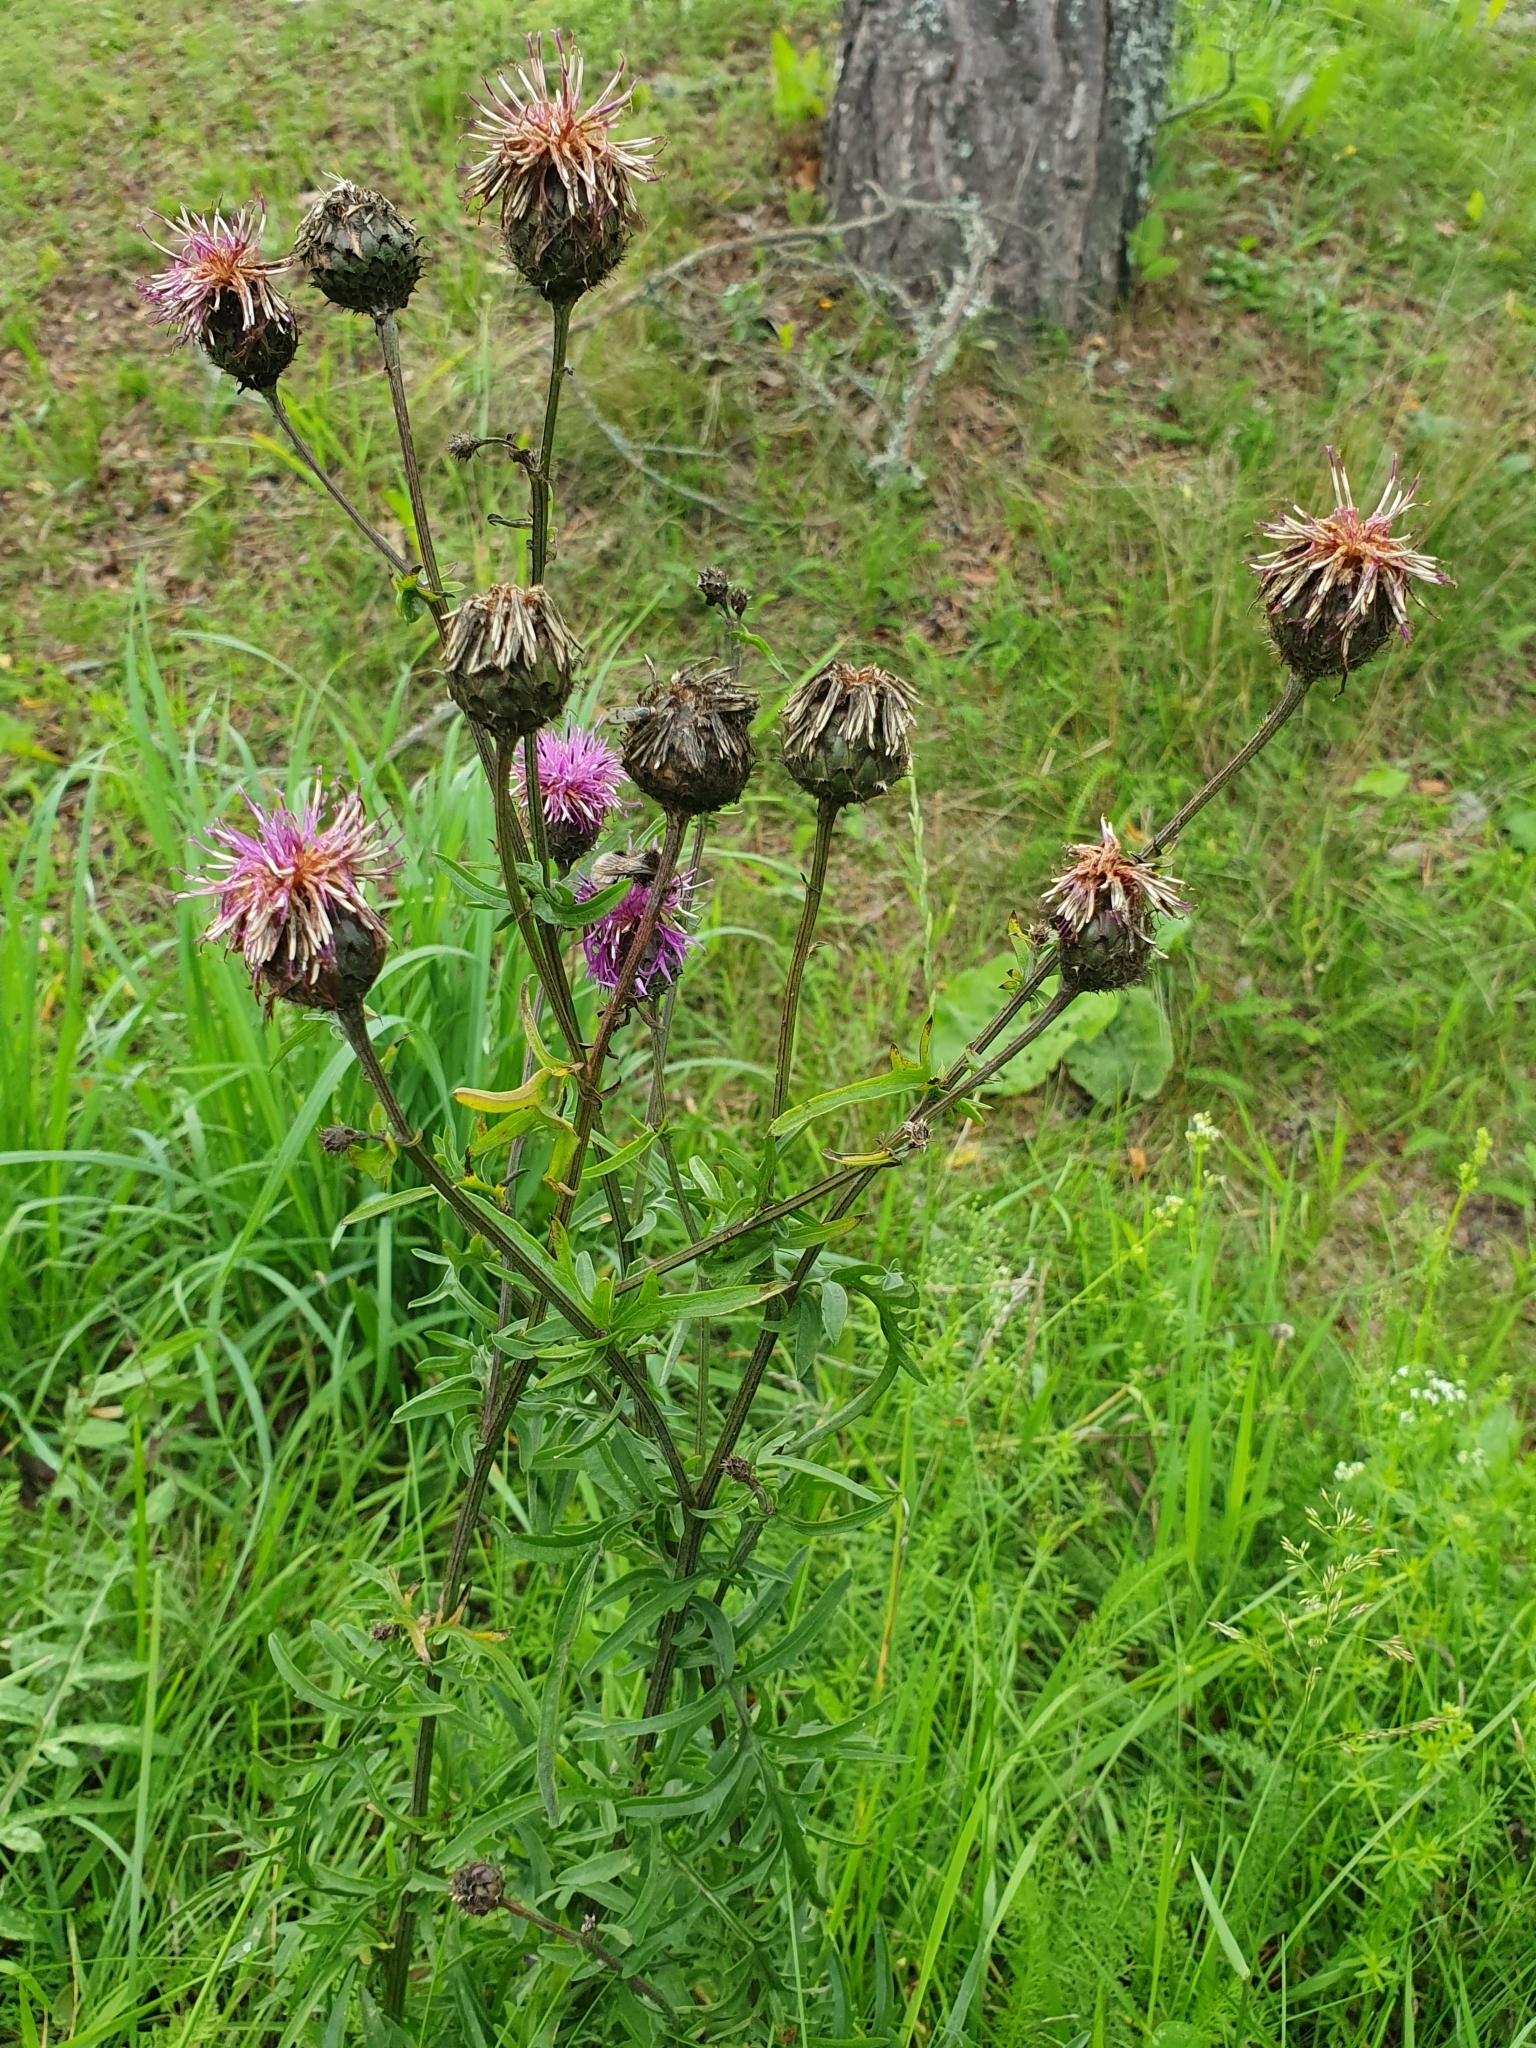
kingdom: Plantae
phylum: Tracheophyta
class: Magnoliopsida
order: Asterales
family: Asteraceae
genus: Centaurea
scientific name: Centaurea scabiosa
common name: Greater knapweed
